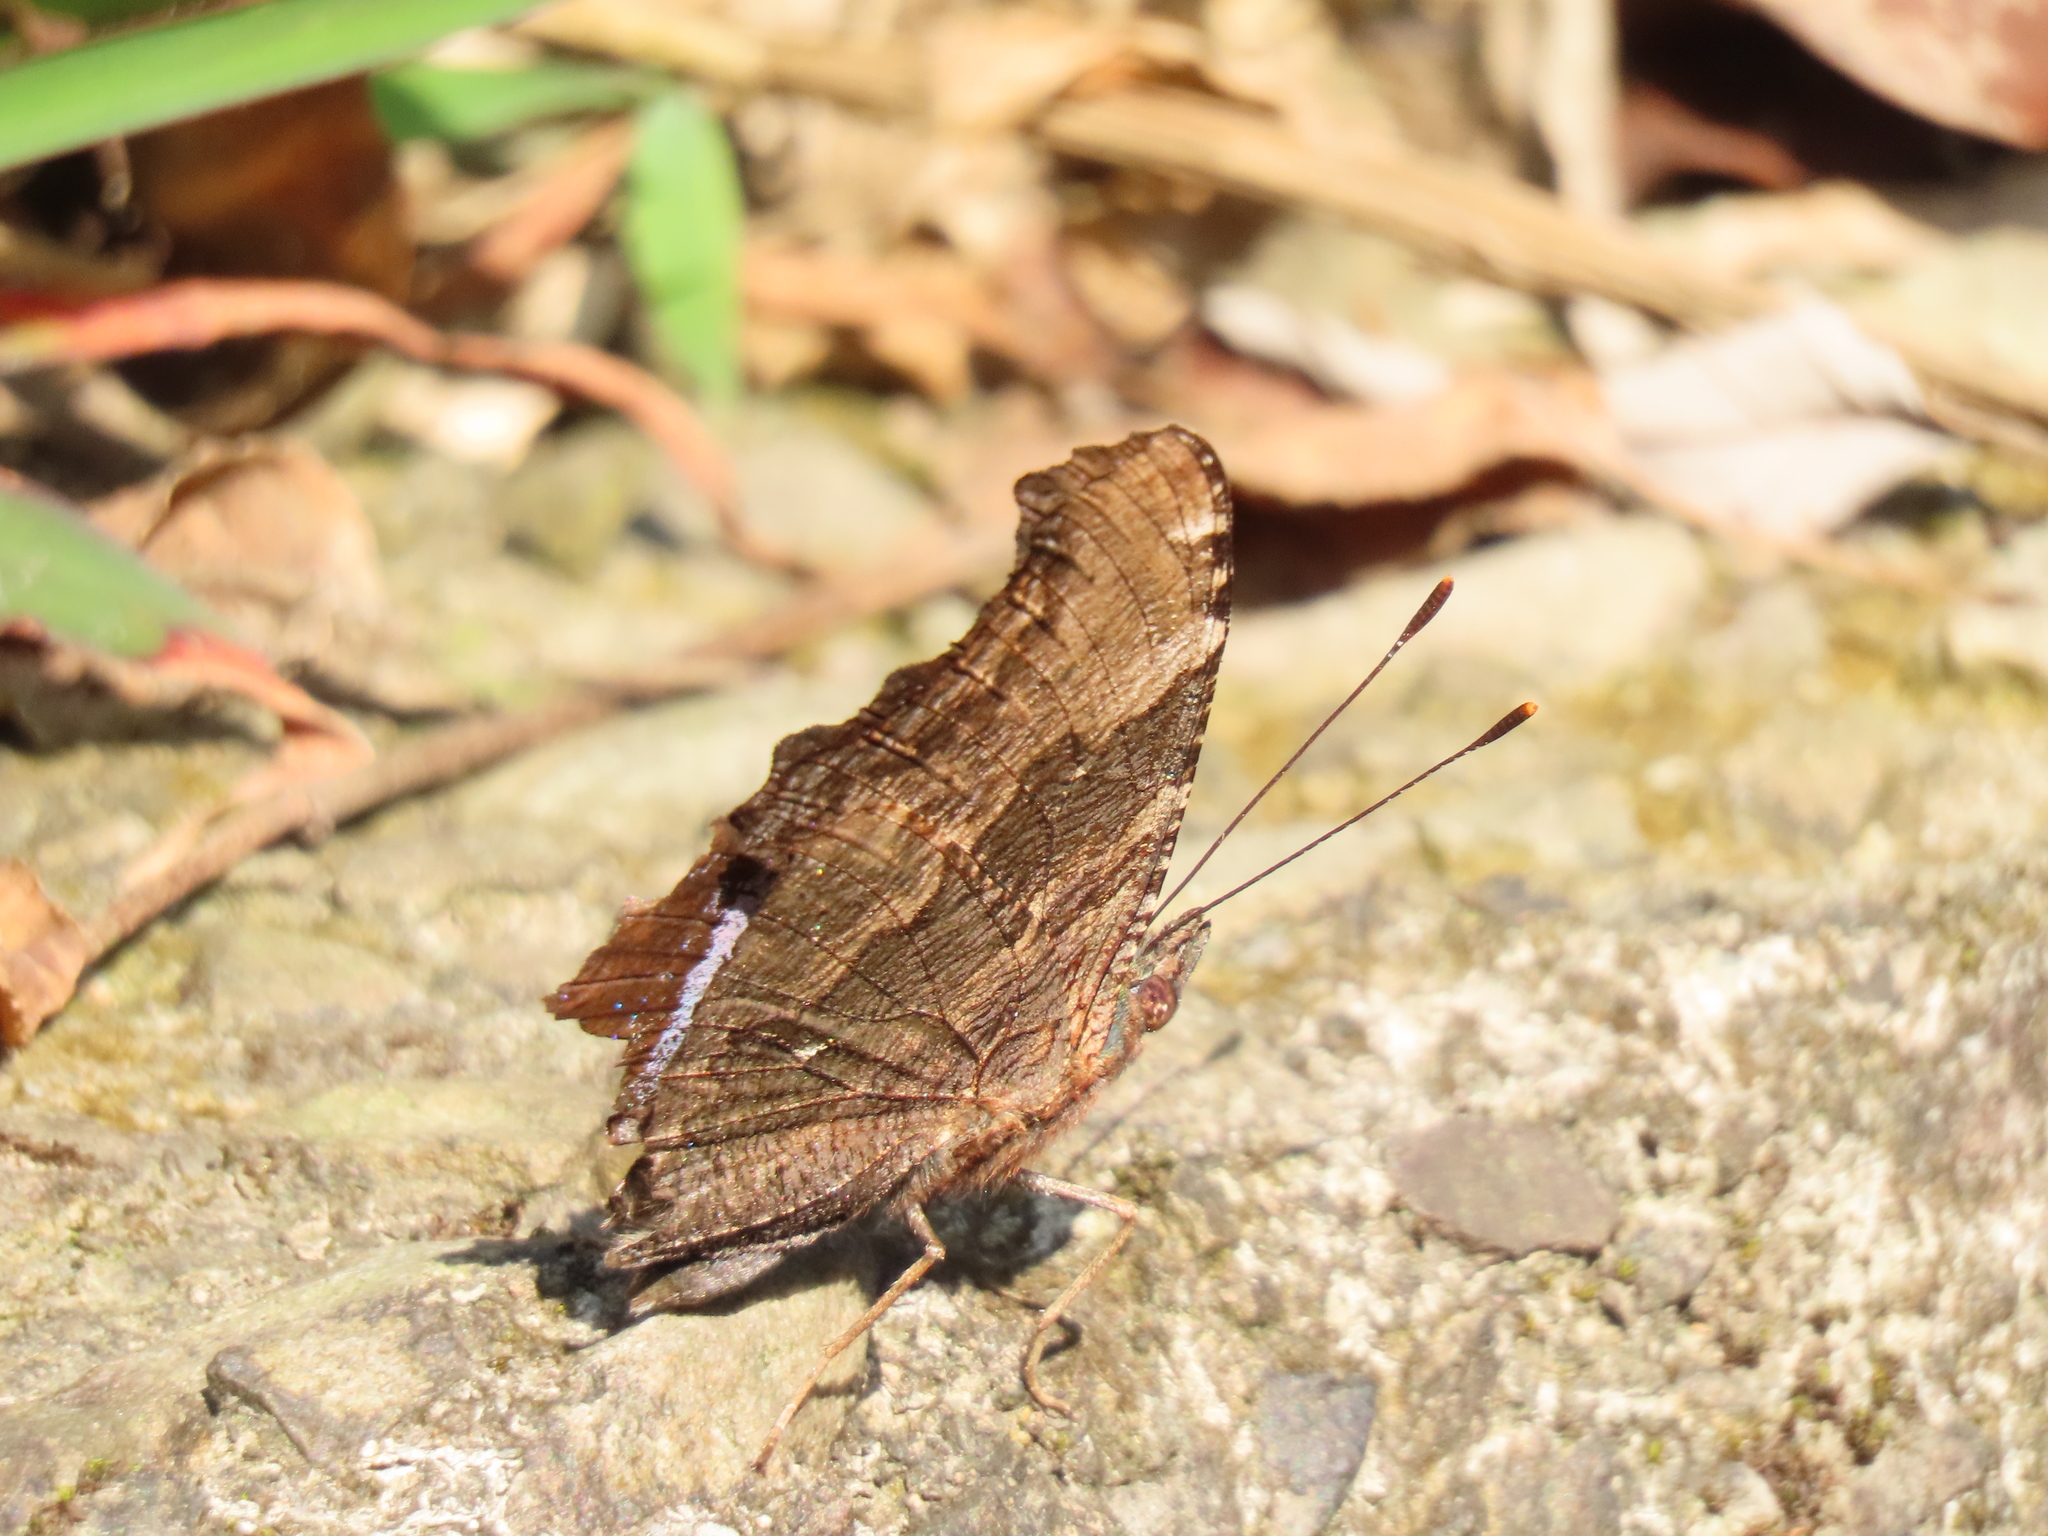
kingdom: Animalia
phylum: Arthropoda
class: Insecta
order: Lepidoptera
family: Nymphalidae
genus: Vanessa
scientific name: Vanessa Kaniska canace
